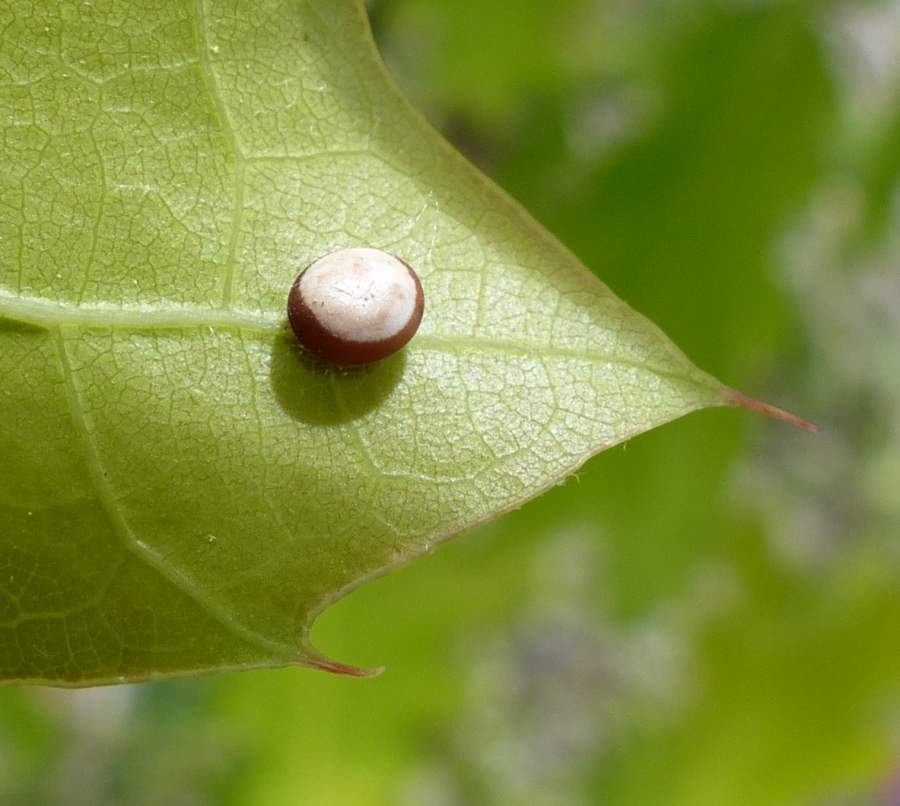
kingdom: Animalia
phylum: Arthropoda
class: Insecta
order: Lepidoptera
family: Saturniidae
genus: Antheraea
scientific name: Antheraea polyphemus
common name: Polyphemus moth
